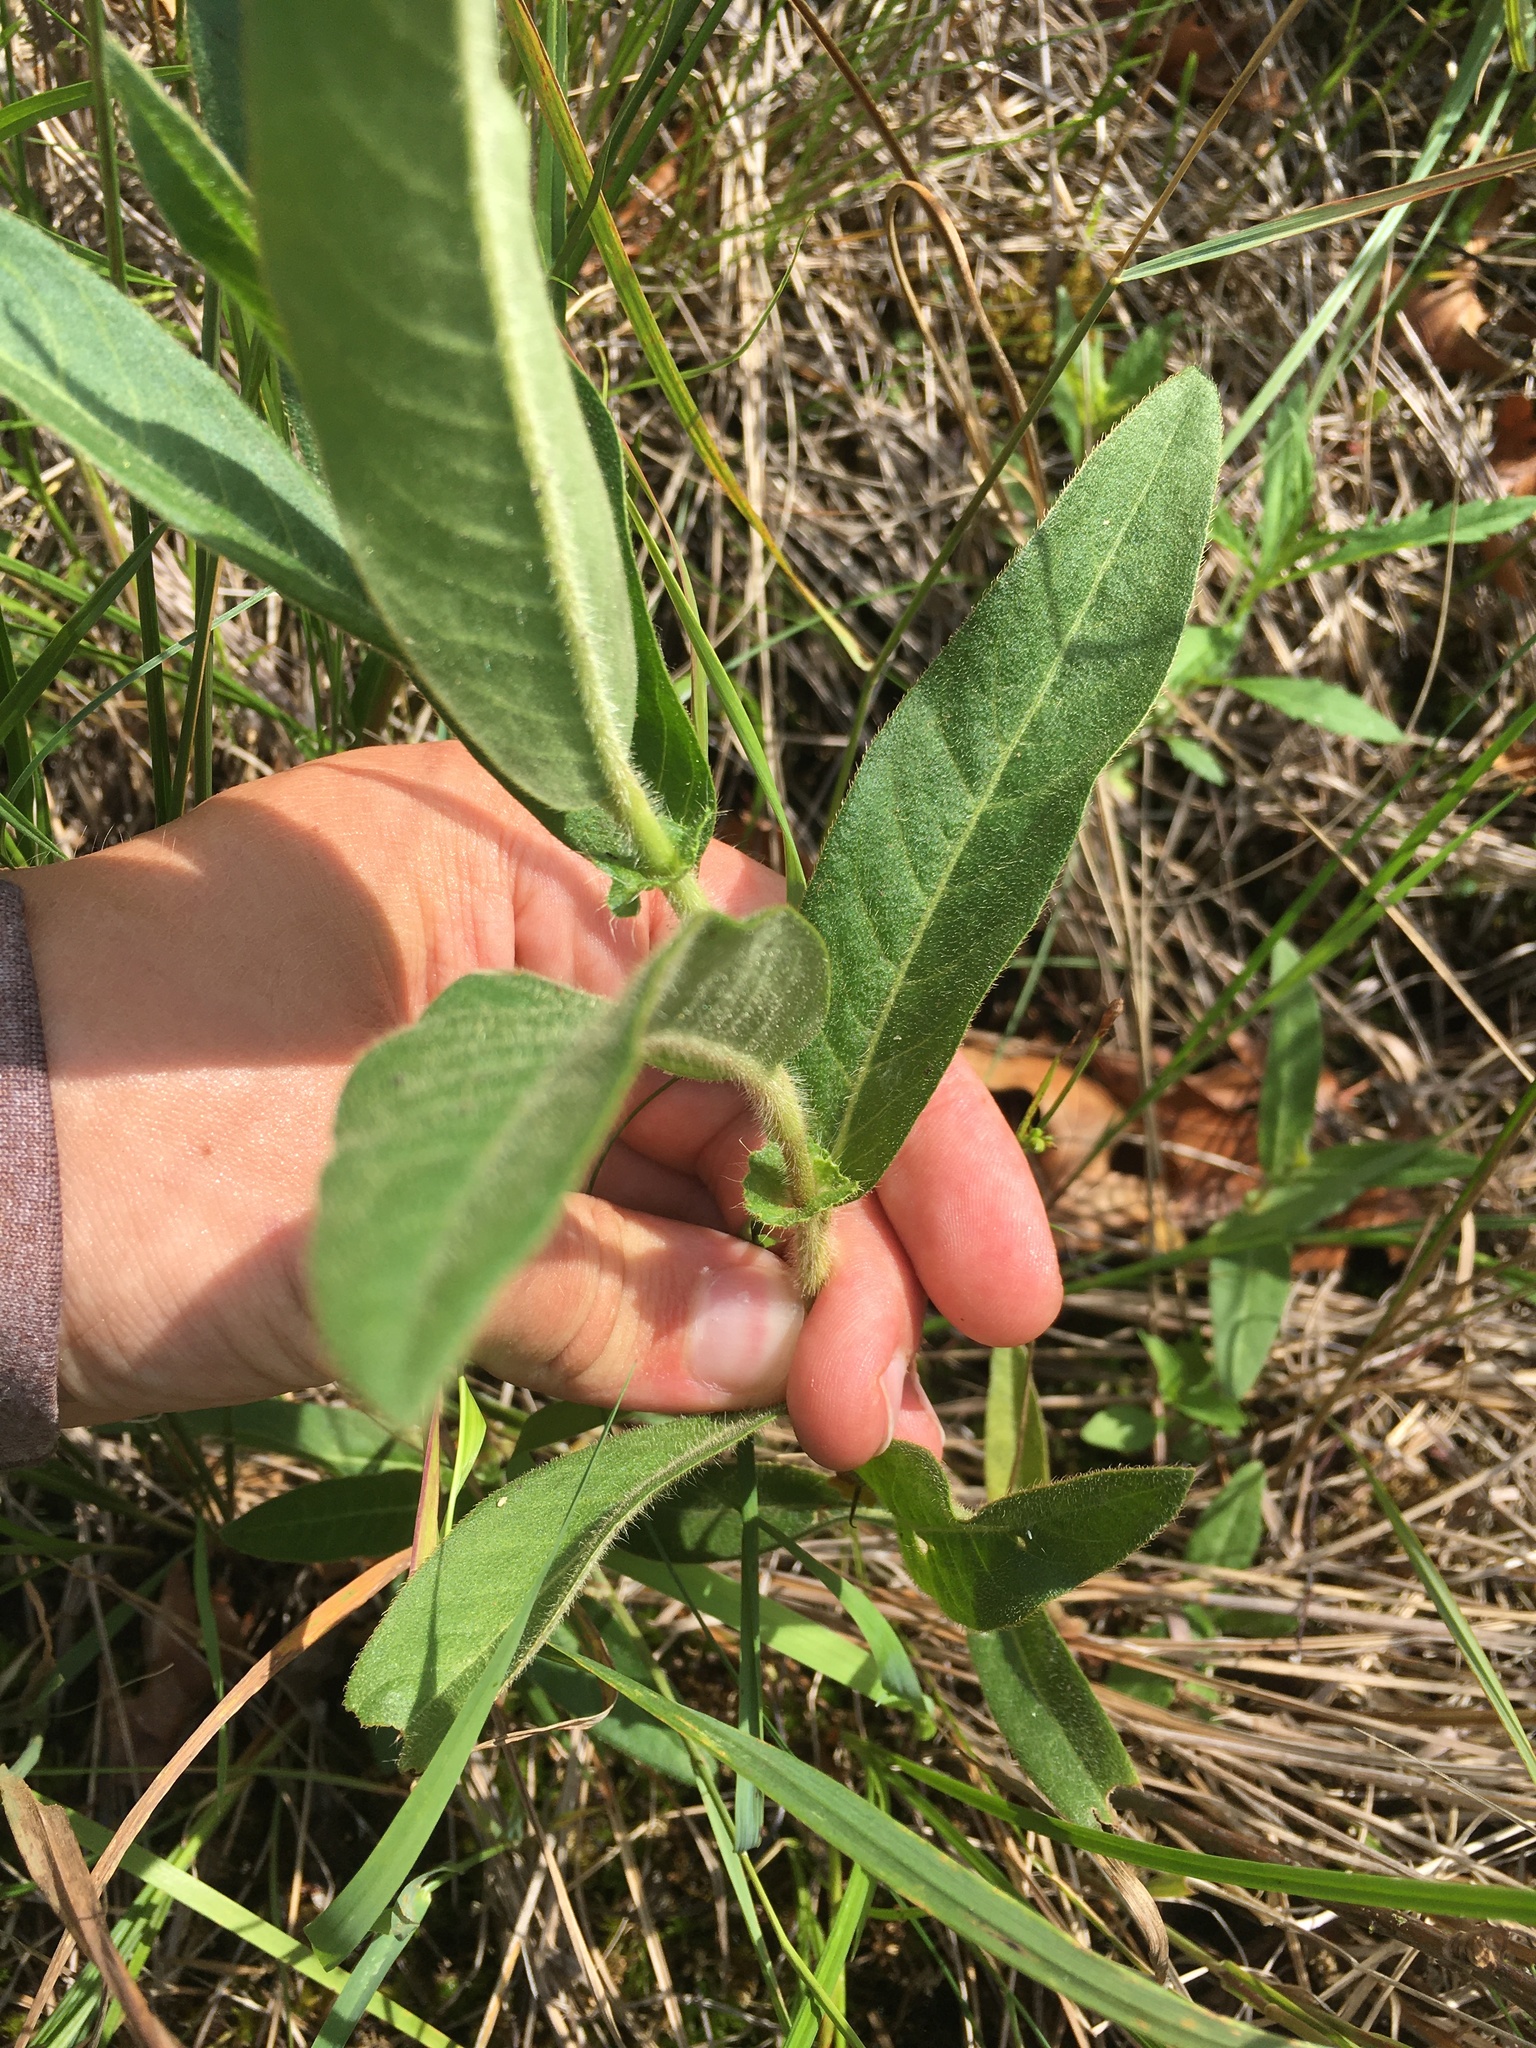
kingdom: Plantae
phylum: Tracheophyta
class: Magnoliopsida
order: Caryophyllales
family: Polygonaceae
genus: Persicaria
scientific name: Persicaria amphibia
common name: Amphibious bistort
